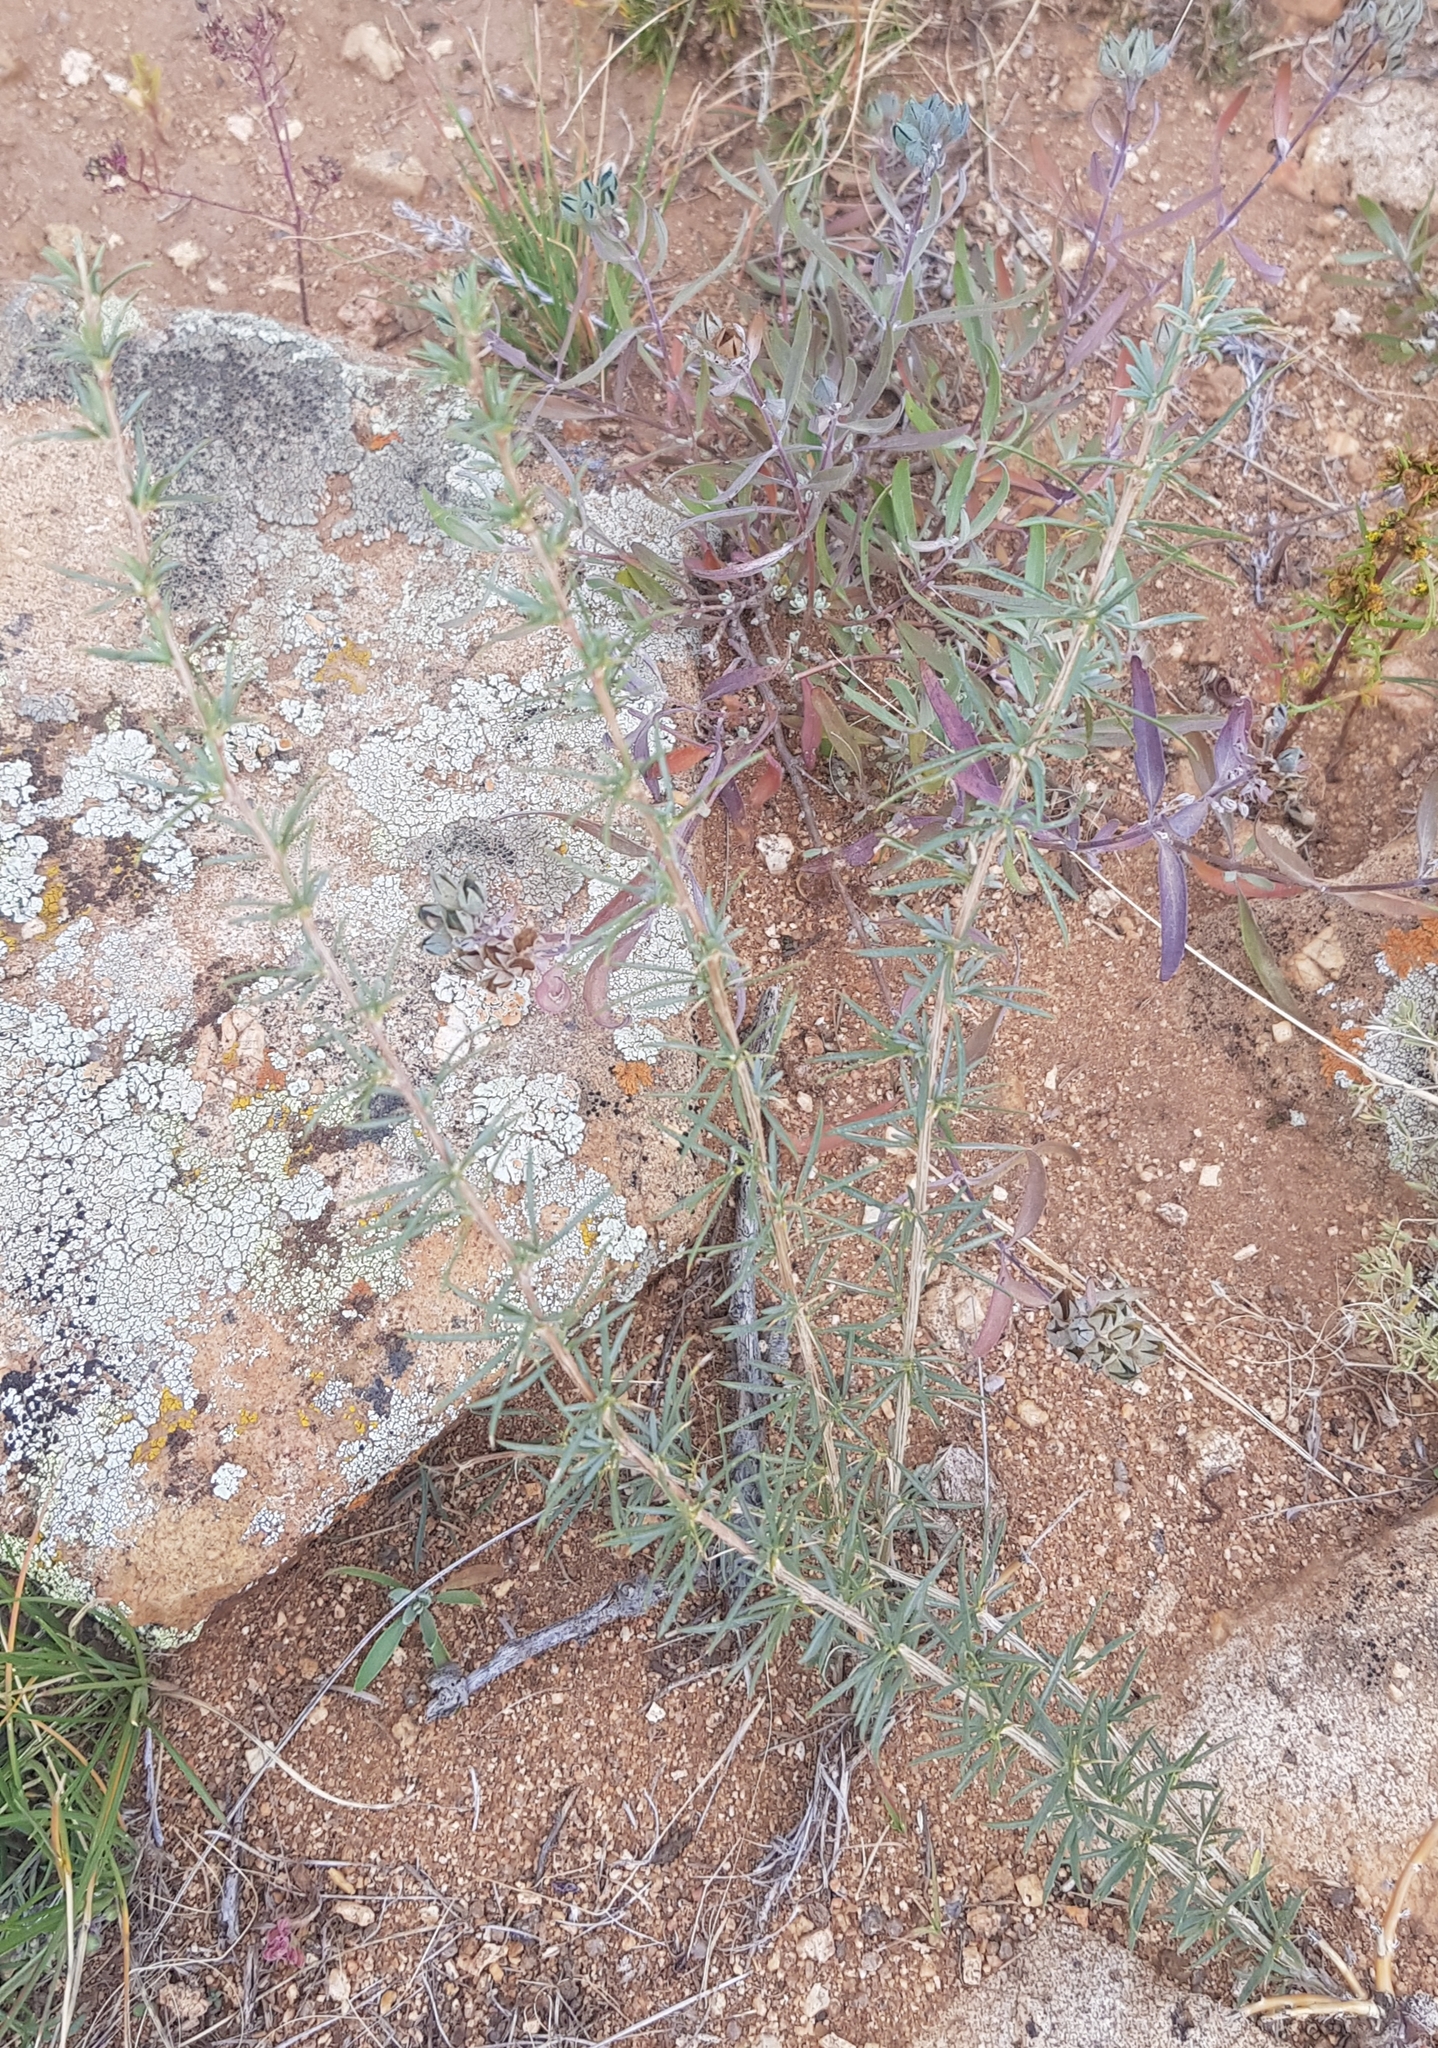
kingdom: Plantae
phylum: Tracheophyta
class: Magnoliopsida
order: Fabales
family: Fabaceae
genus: Caragana
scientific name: Caragana stenophylla
